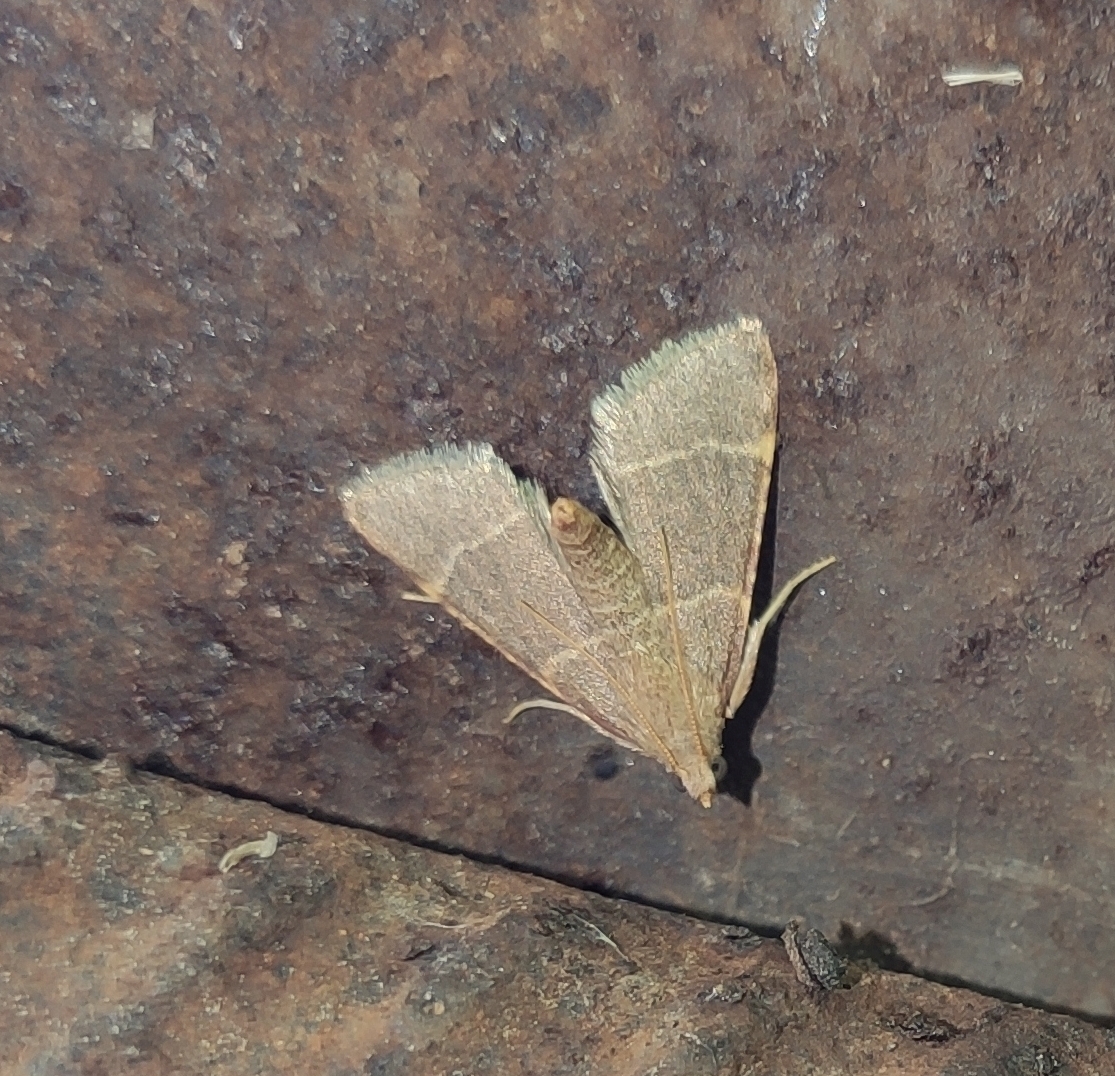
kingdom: Animalia
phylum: Arthropoda
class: Insecta
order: Lepidoptera
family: Pyralidae
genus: Hypsopygia
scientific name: Hypsopygia glaucinalis
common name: Double-striped tabby
